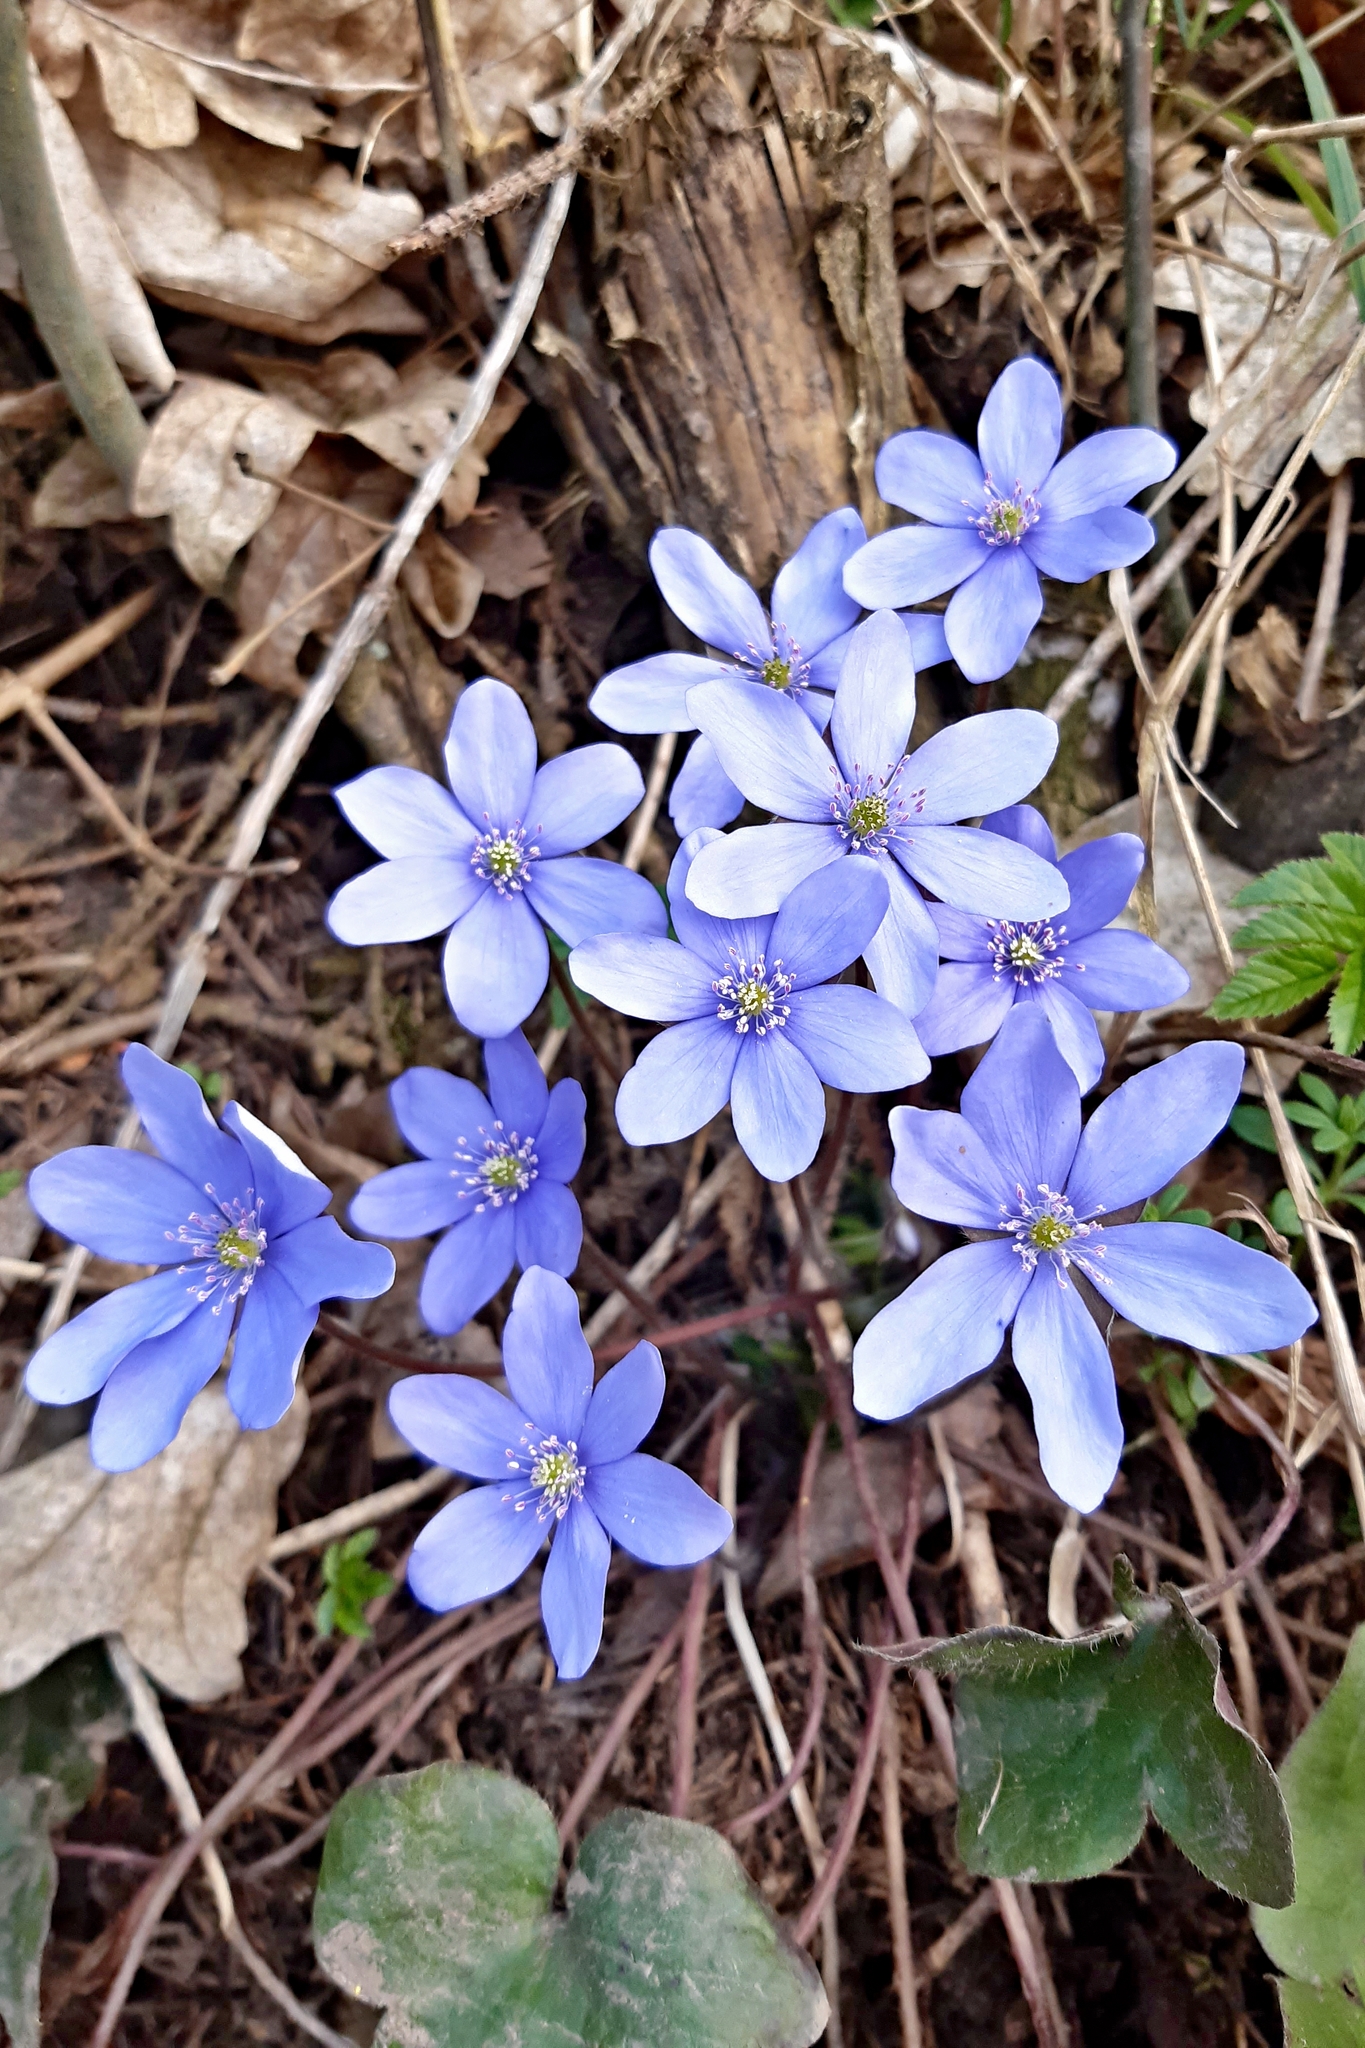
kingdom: Plantae
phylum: Tracheophyta
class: Magnoliopsida
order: Ranunculales
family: Ranunculaceae
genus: Hepatica
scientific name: Hepatica nobilis
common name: Liverleaf
